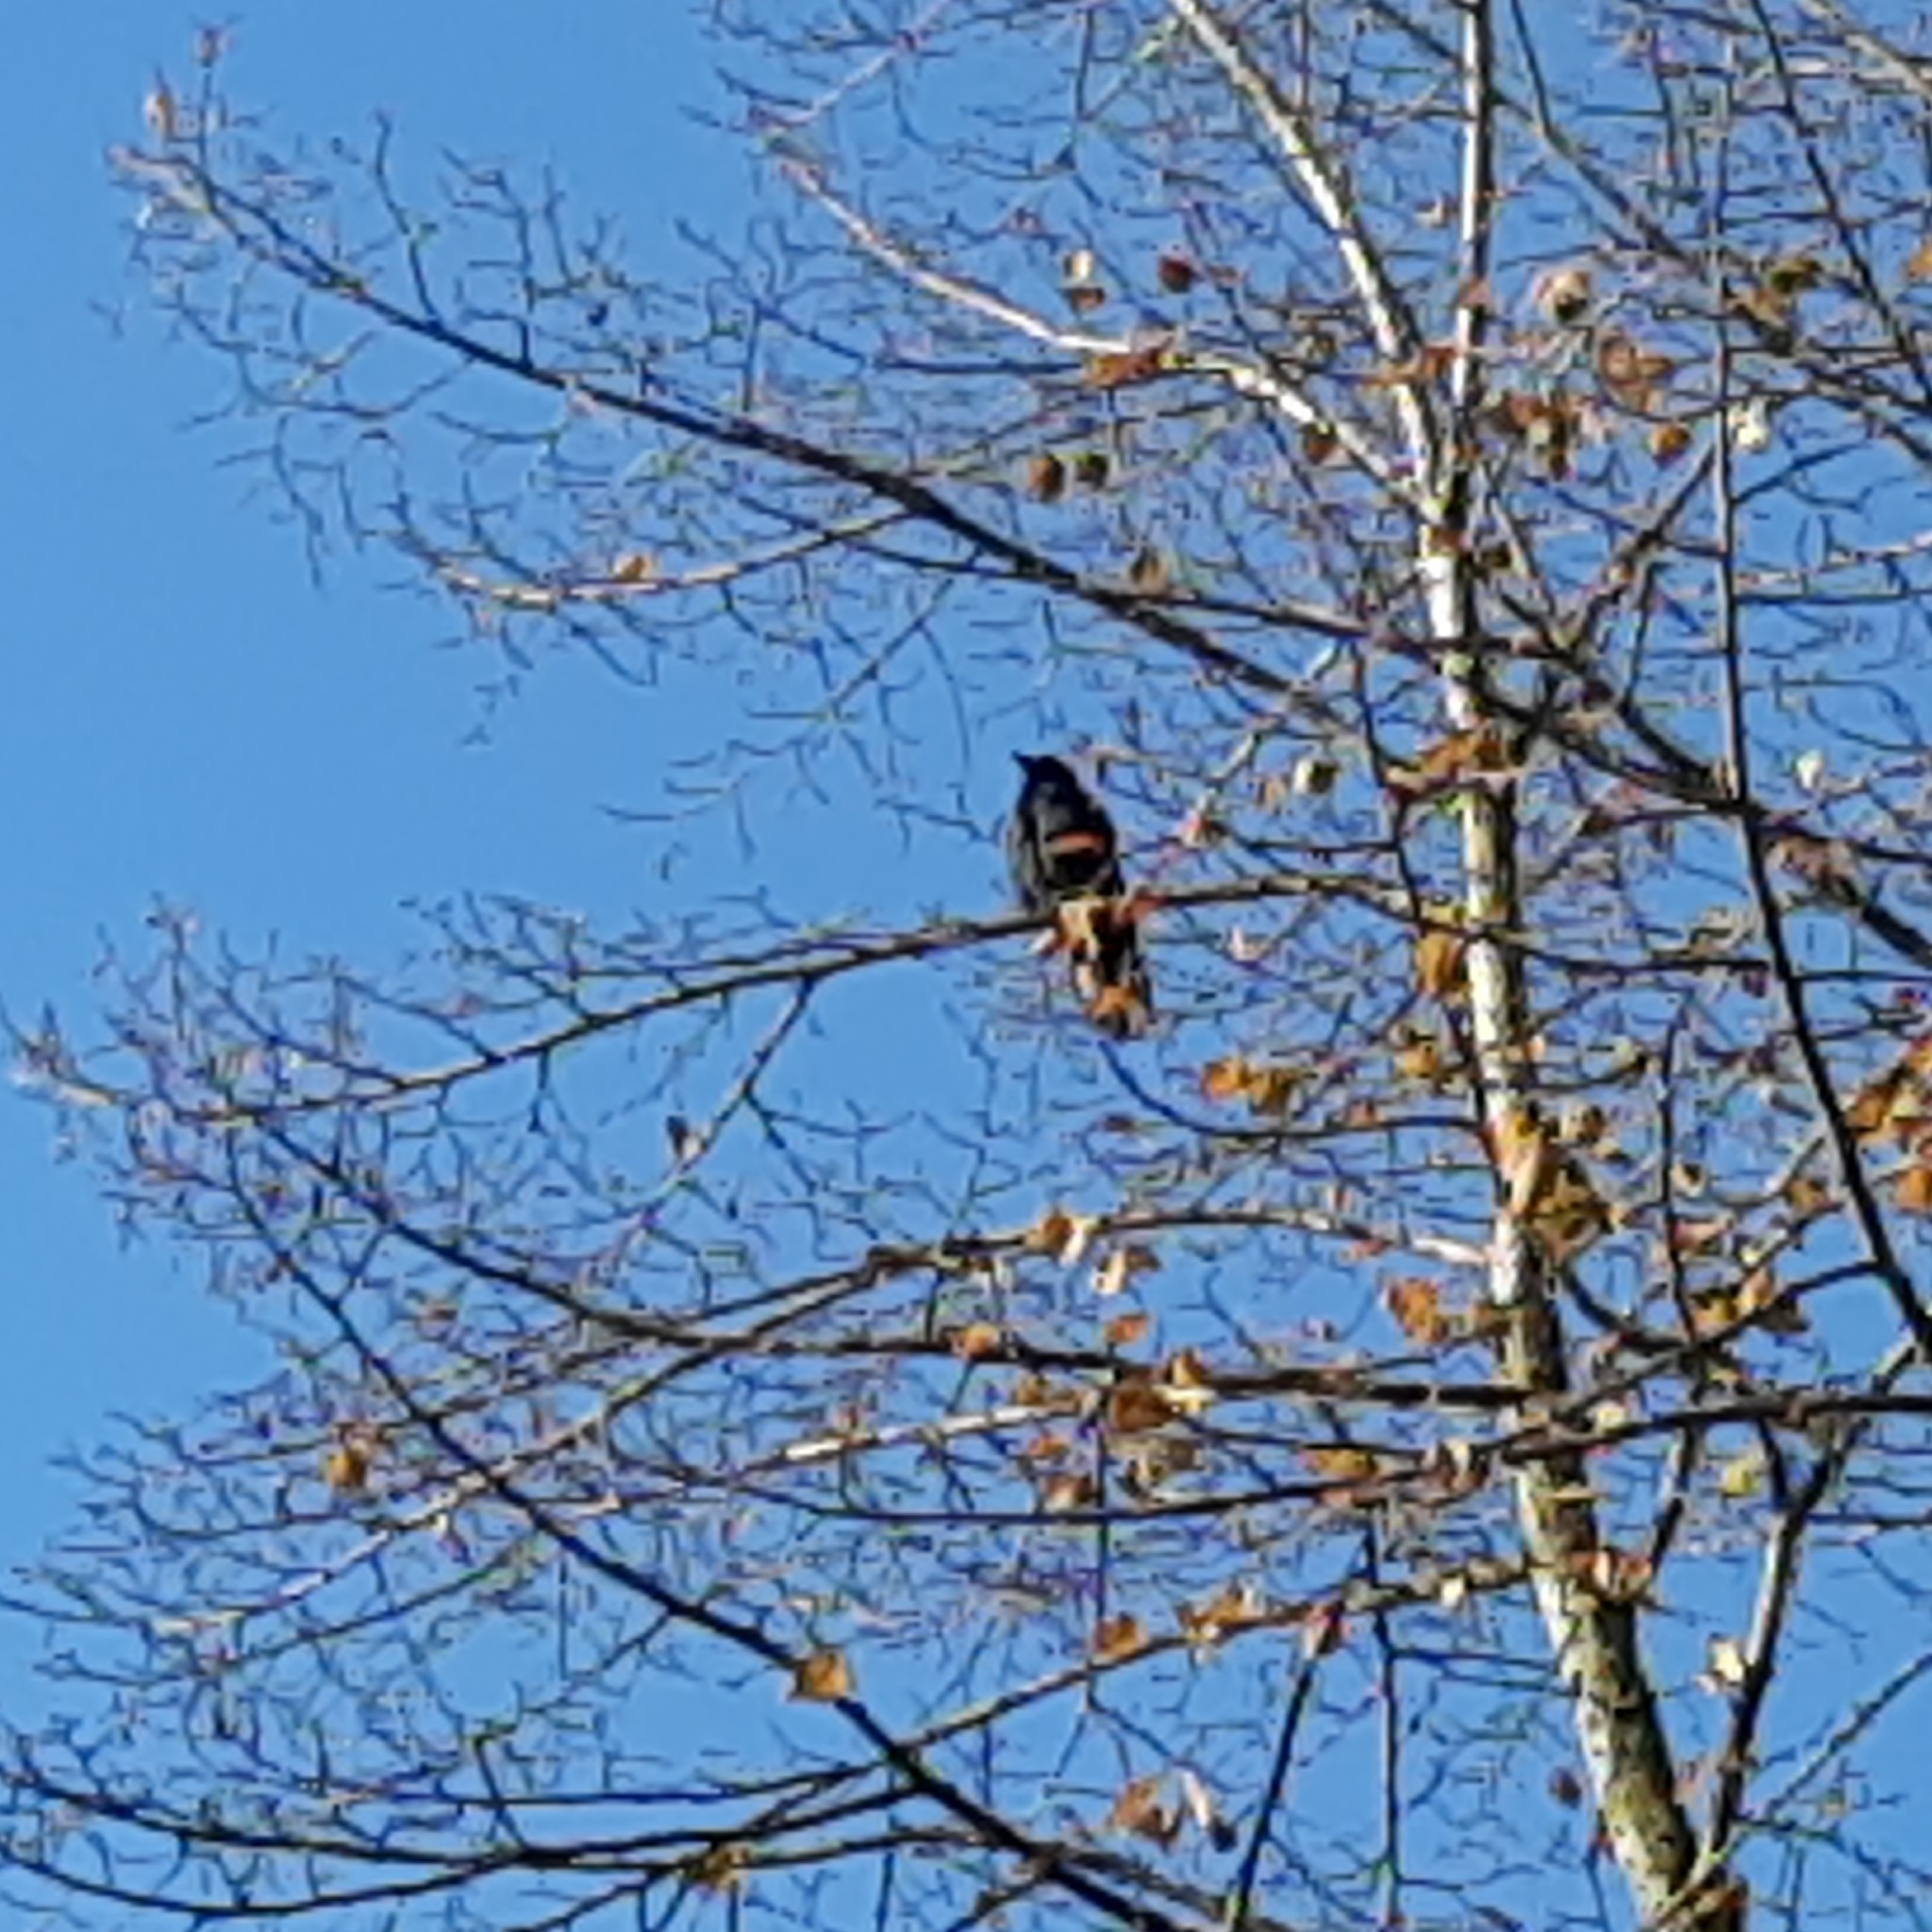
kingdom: Animalia
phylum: Chordata
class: Aves
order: Passeriformes
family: Corvidae
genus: Corvus
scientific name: Corvus brachyrhynchos
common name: American crow
